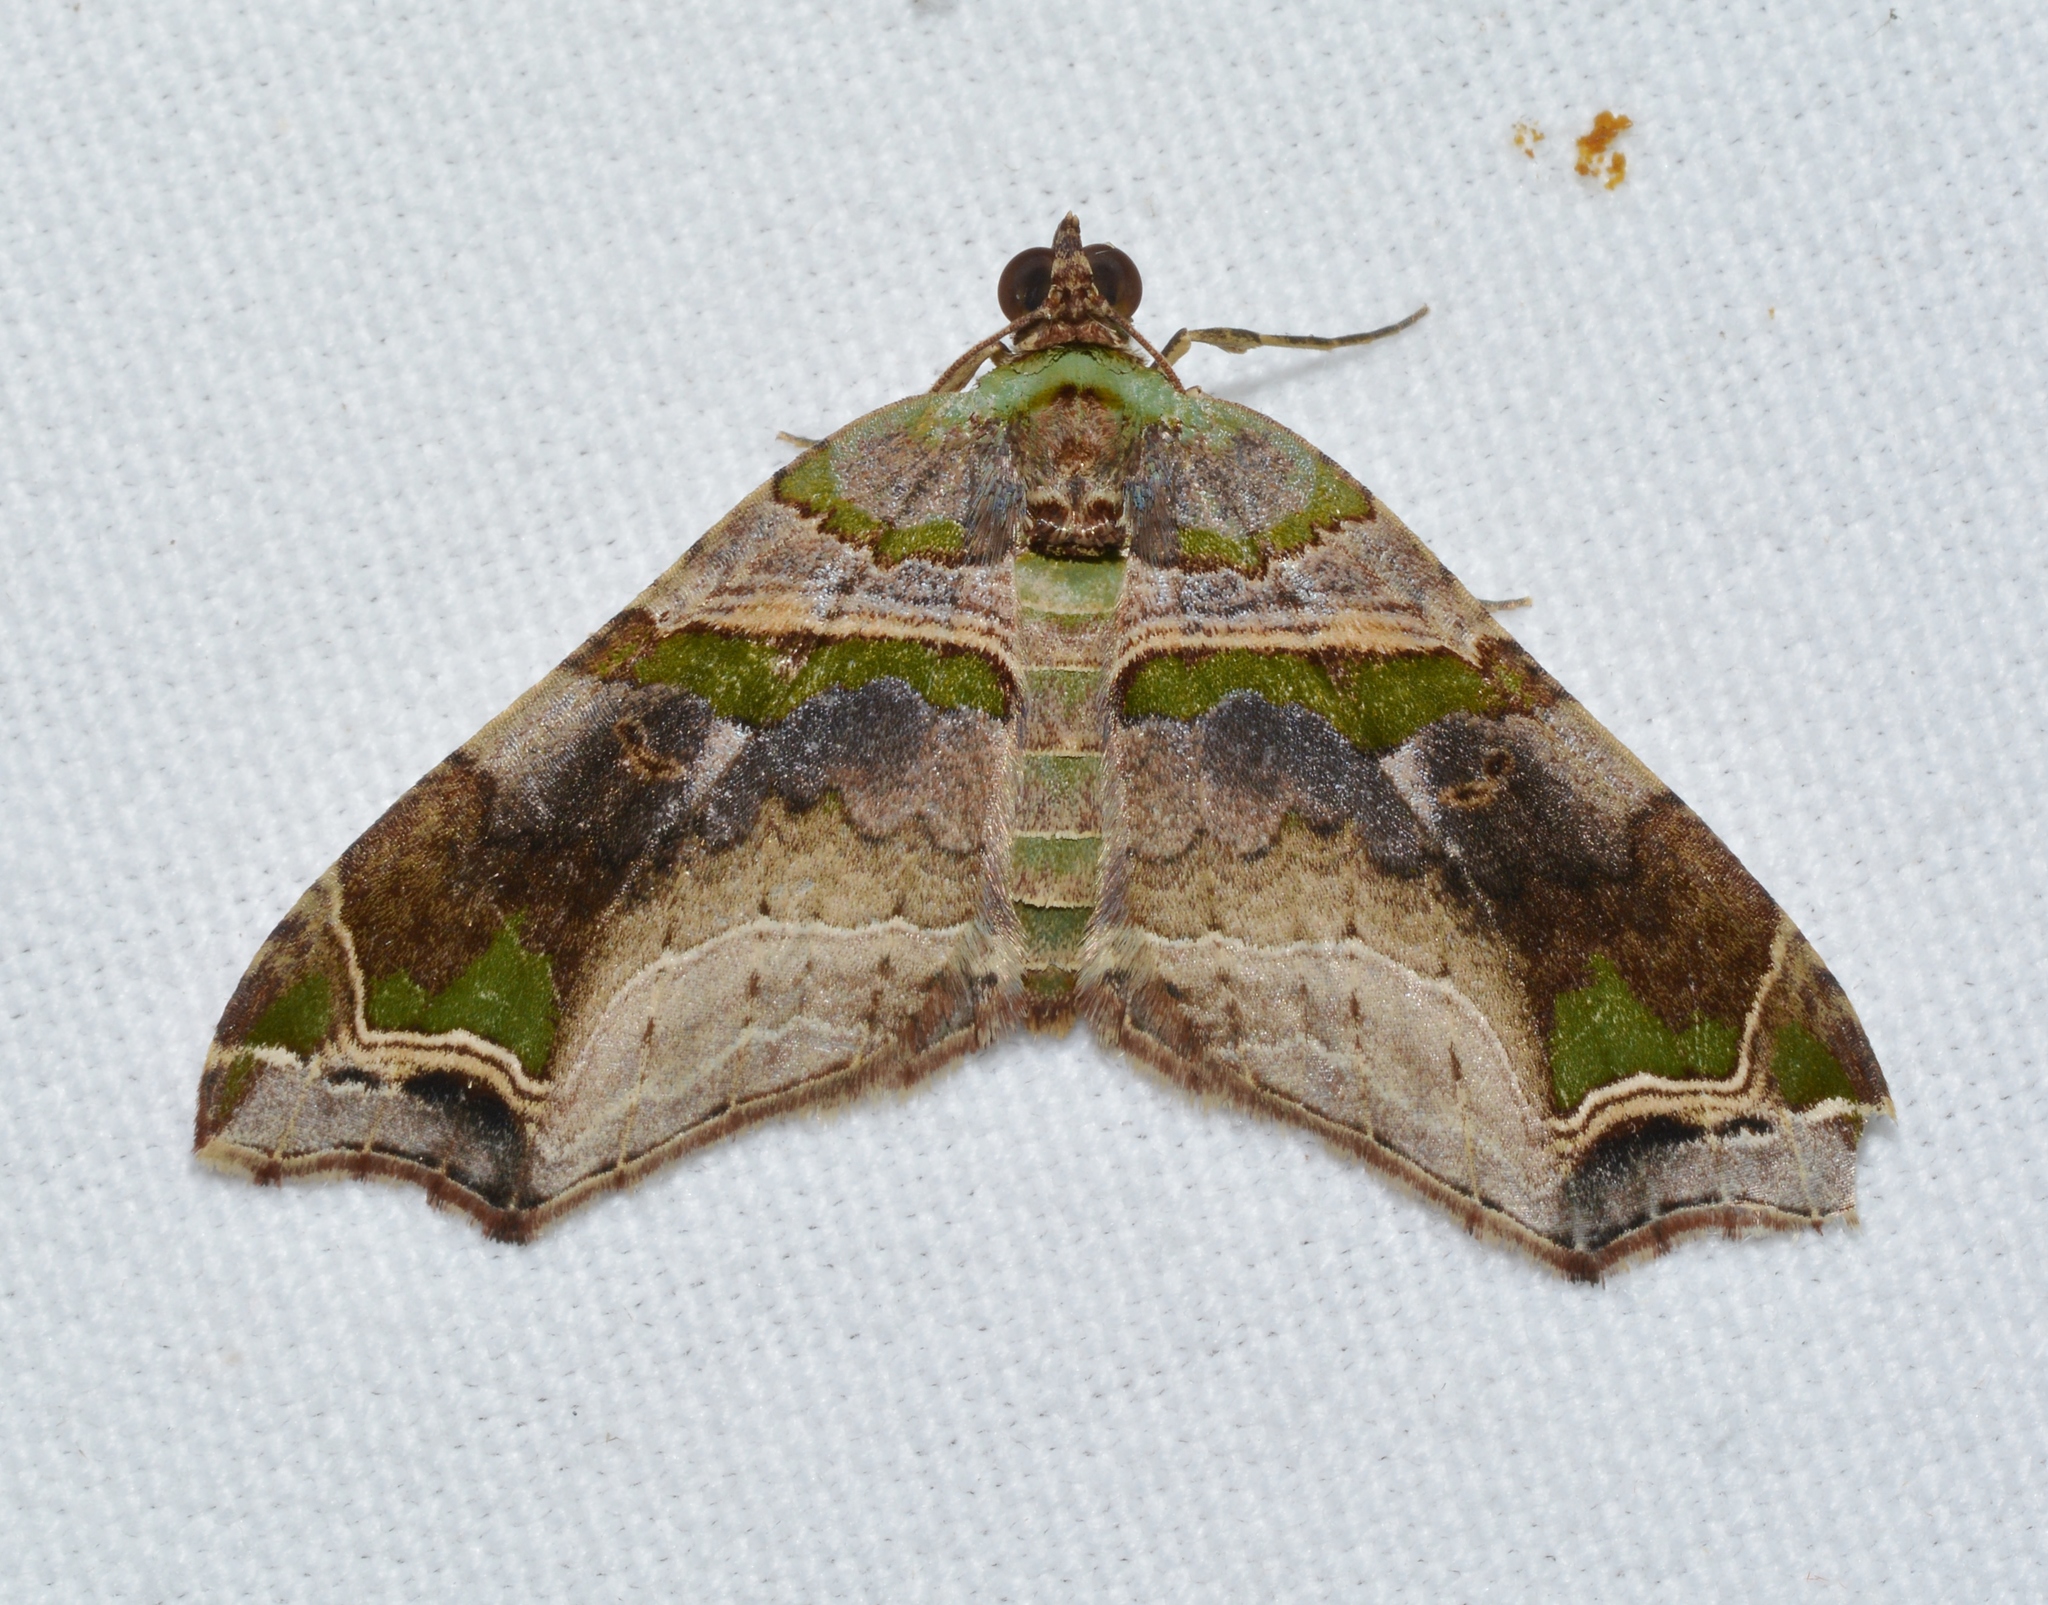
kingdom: Animalia
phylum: Arthropoda
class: Insecta
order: Lepidoptera
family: Geometridae
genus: Oligopleura
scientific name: Oligopleura aulaeata
